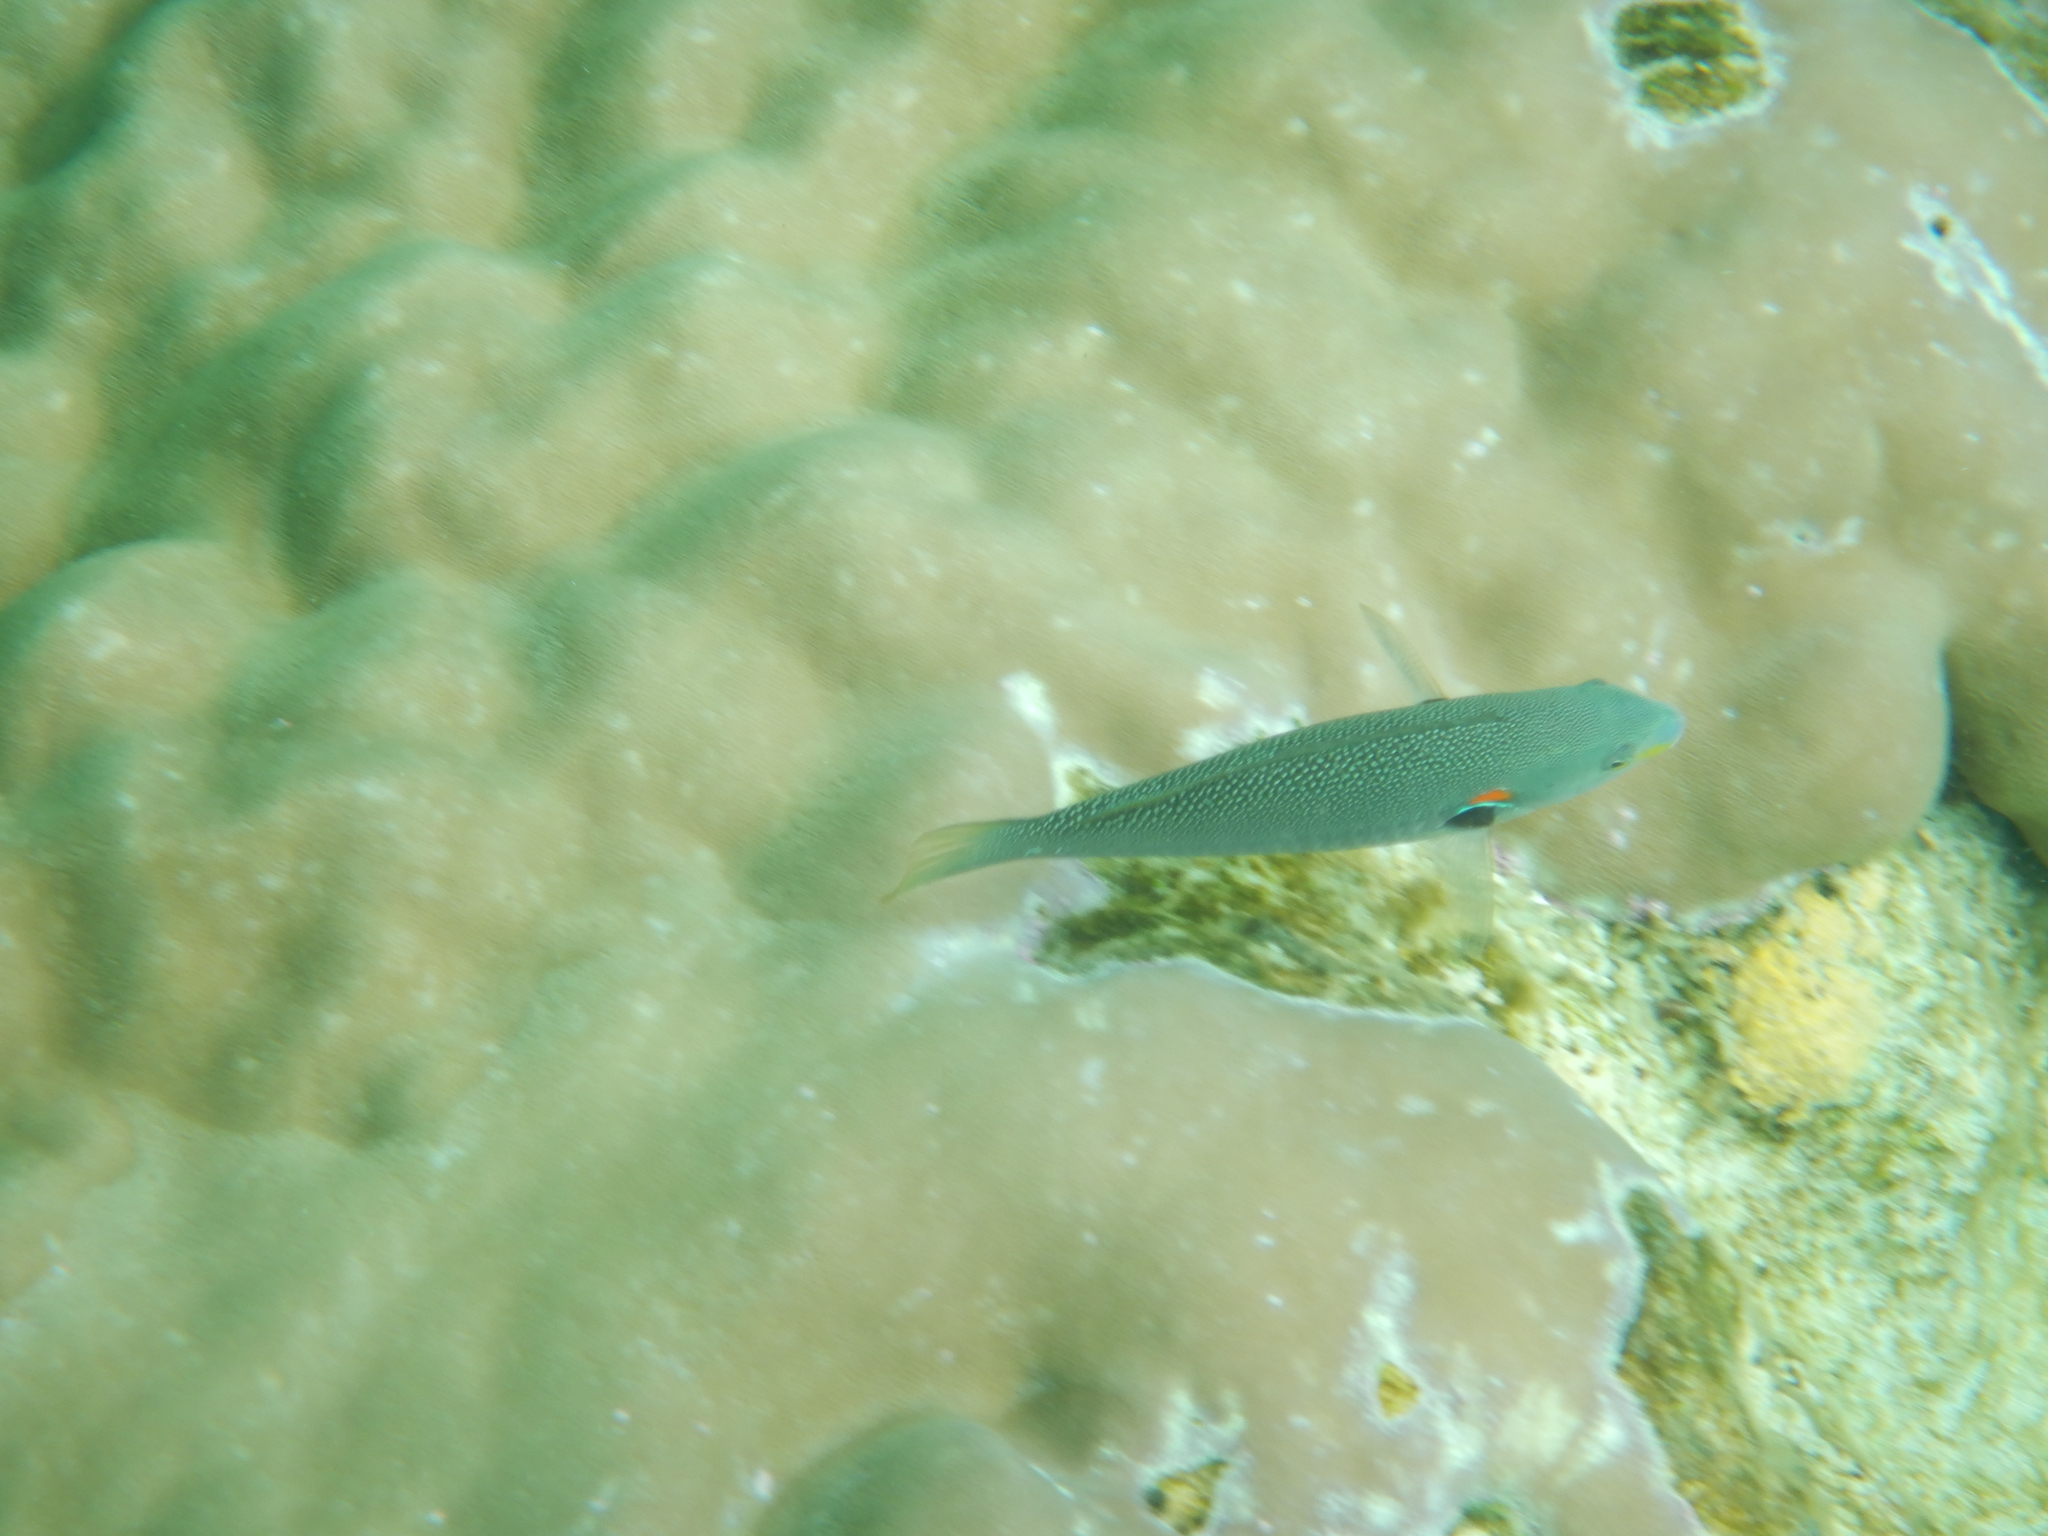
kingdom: Animalia
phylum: Chordata
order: Perciformes
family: Labridae
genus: Stethojulis
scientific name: Stethojulis bandanensis
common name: Red shoulder wrasse
